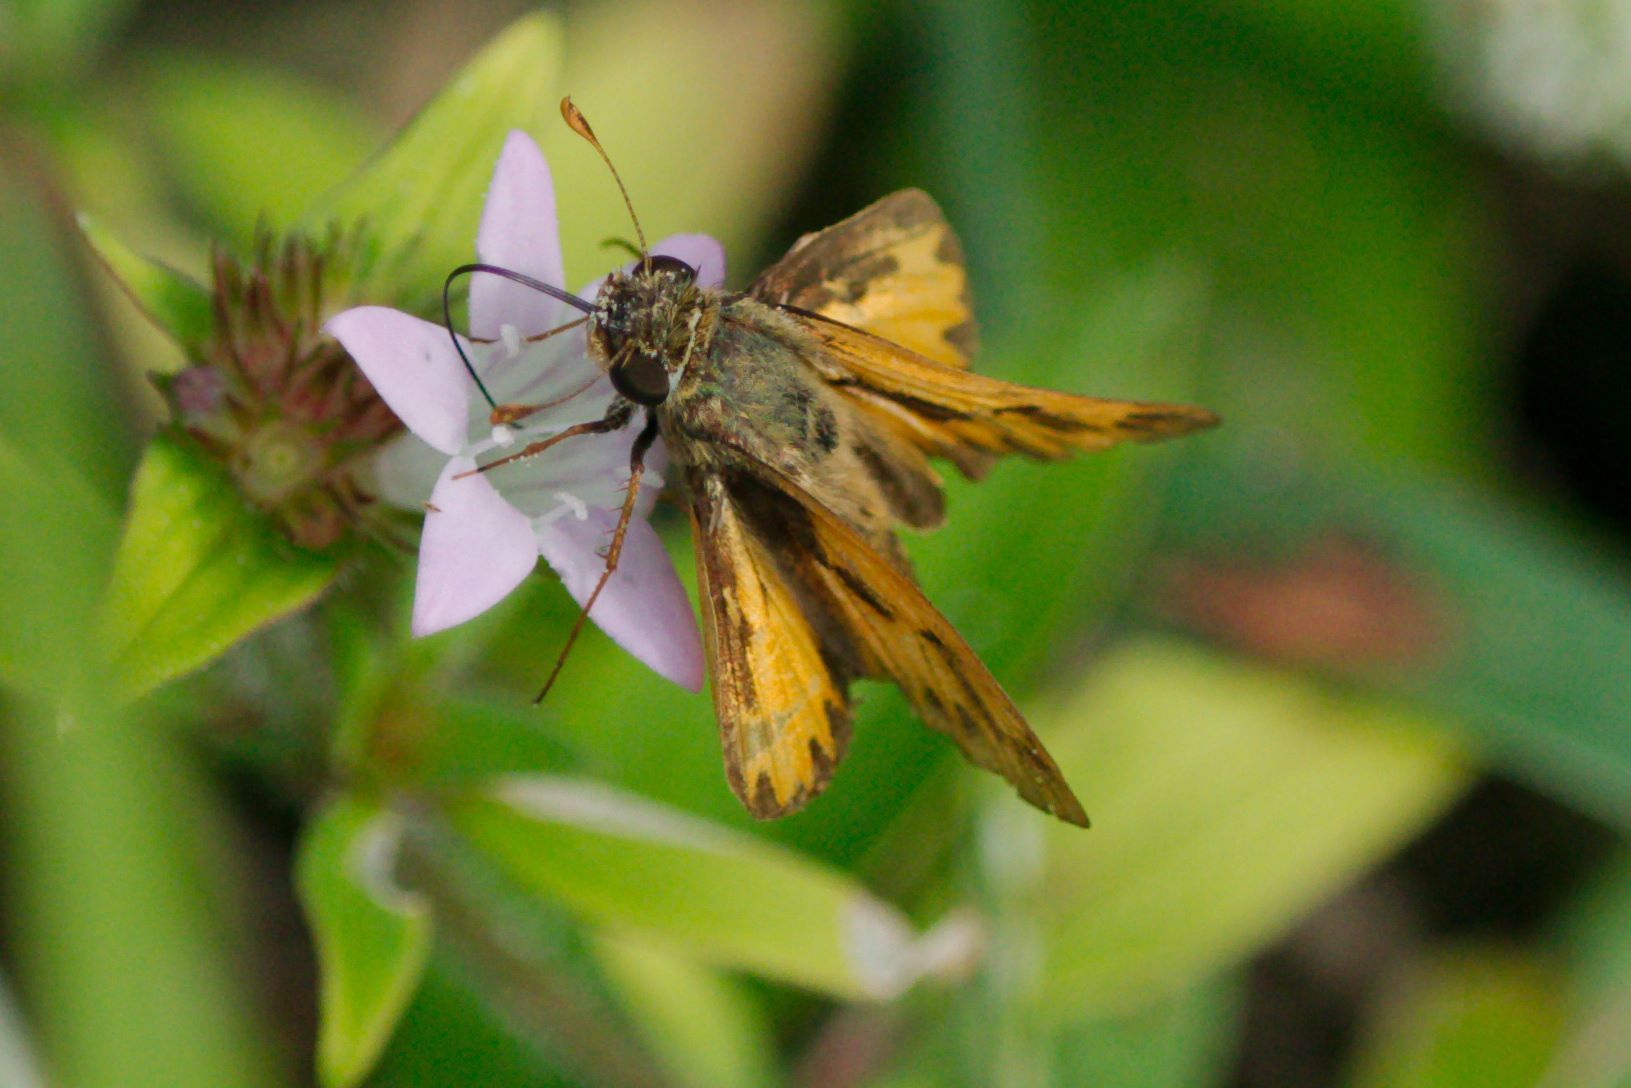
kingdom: Animalia
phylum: Arthropoda
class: Insecta
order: Lepidoptera
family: Hesperiidae
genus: Hylephila
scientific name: Hylephila phyleus
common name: Fiery skipper
